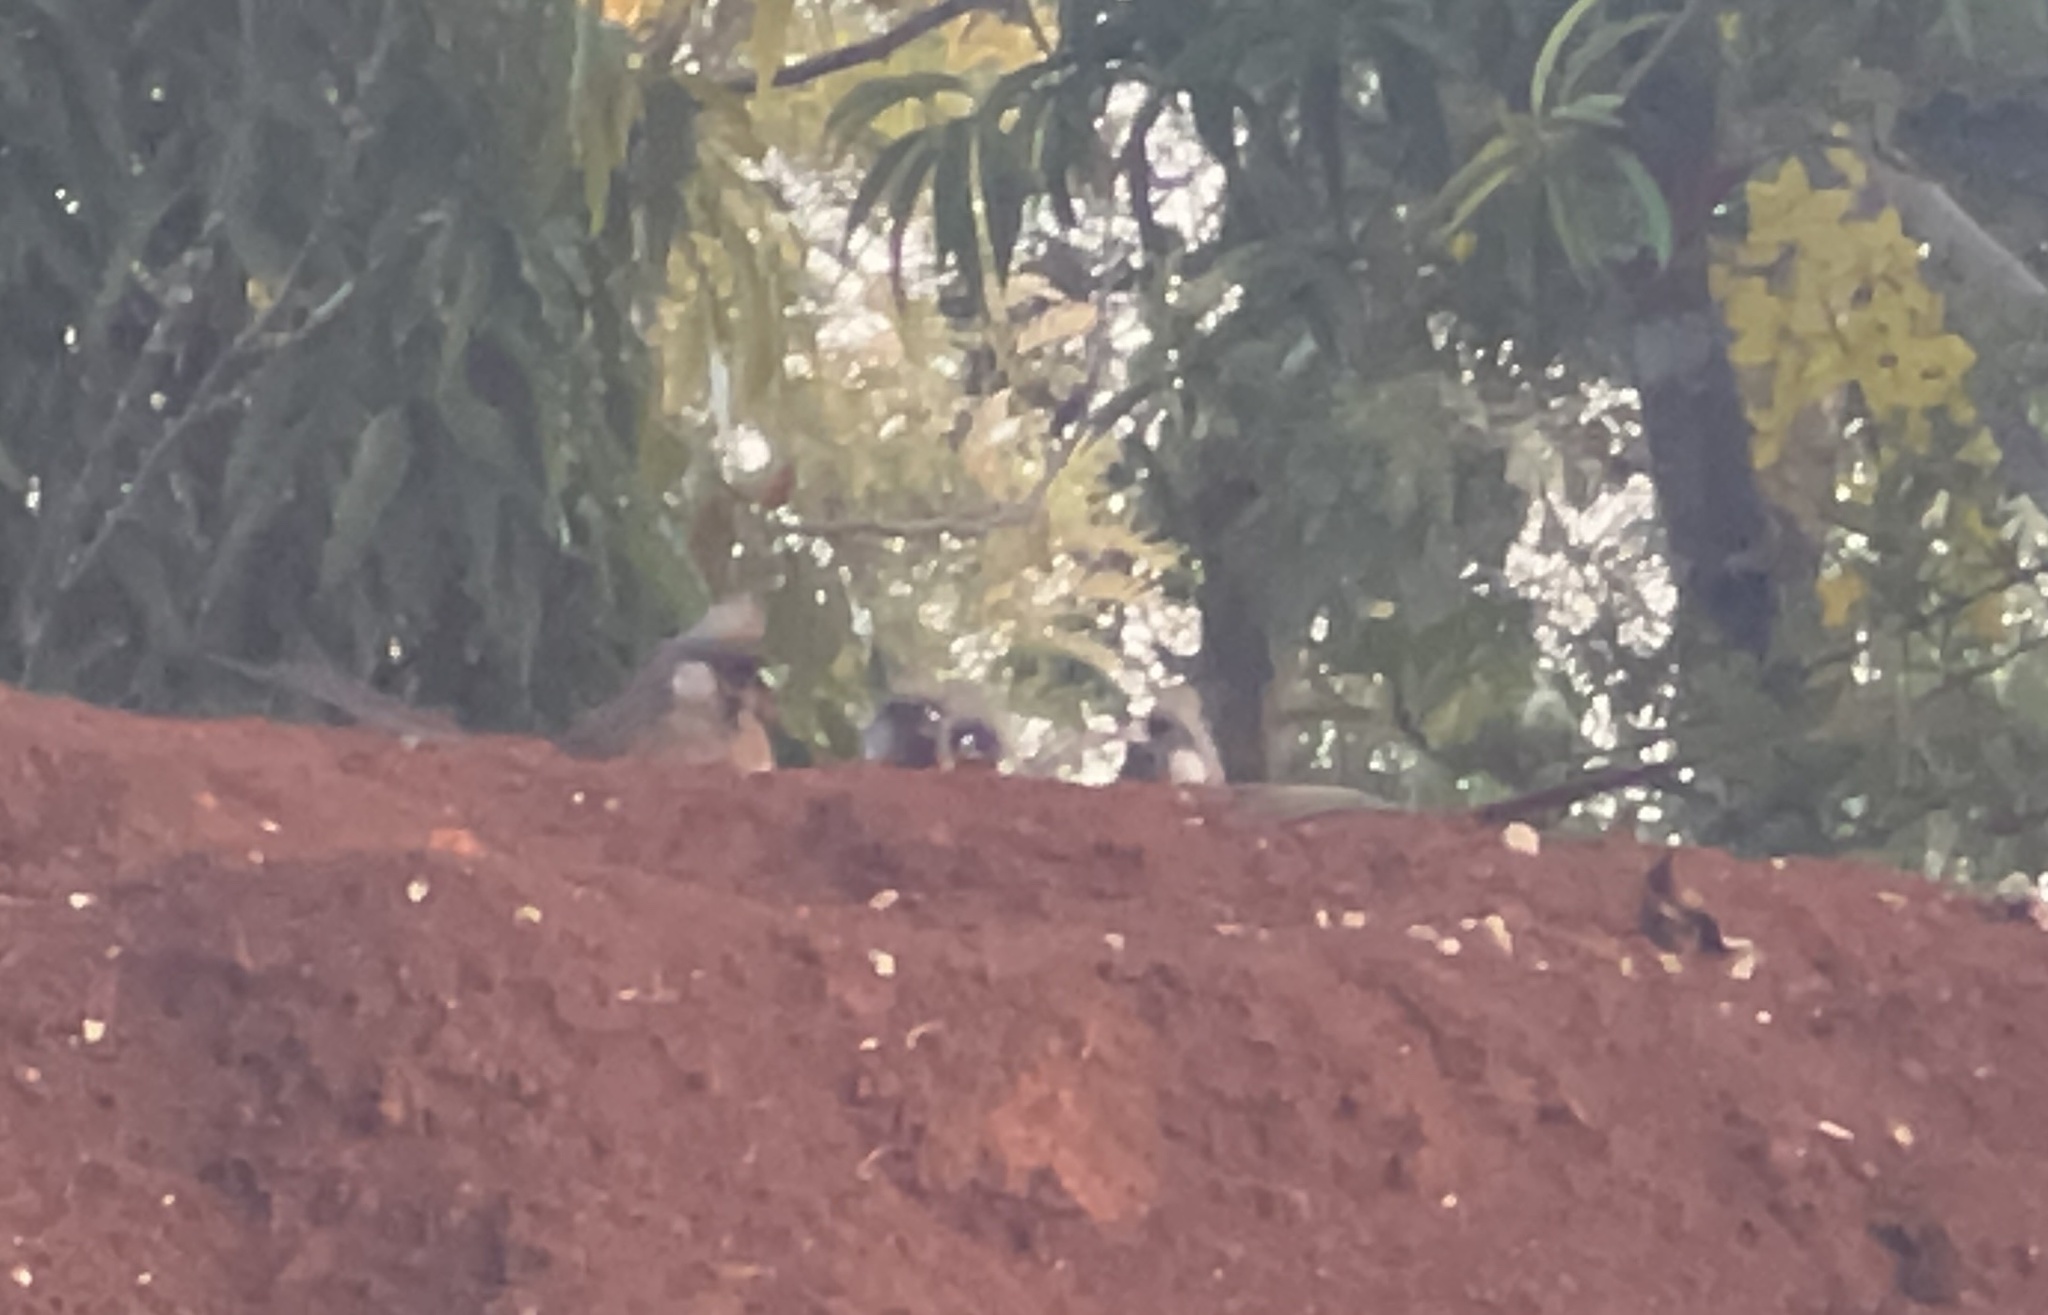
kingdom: Animalia
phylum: Chordata
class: Aves
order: Coliiformes
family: Coliidae
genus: Colius
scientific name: Colius striatus
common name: Speckled mousebird
